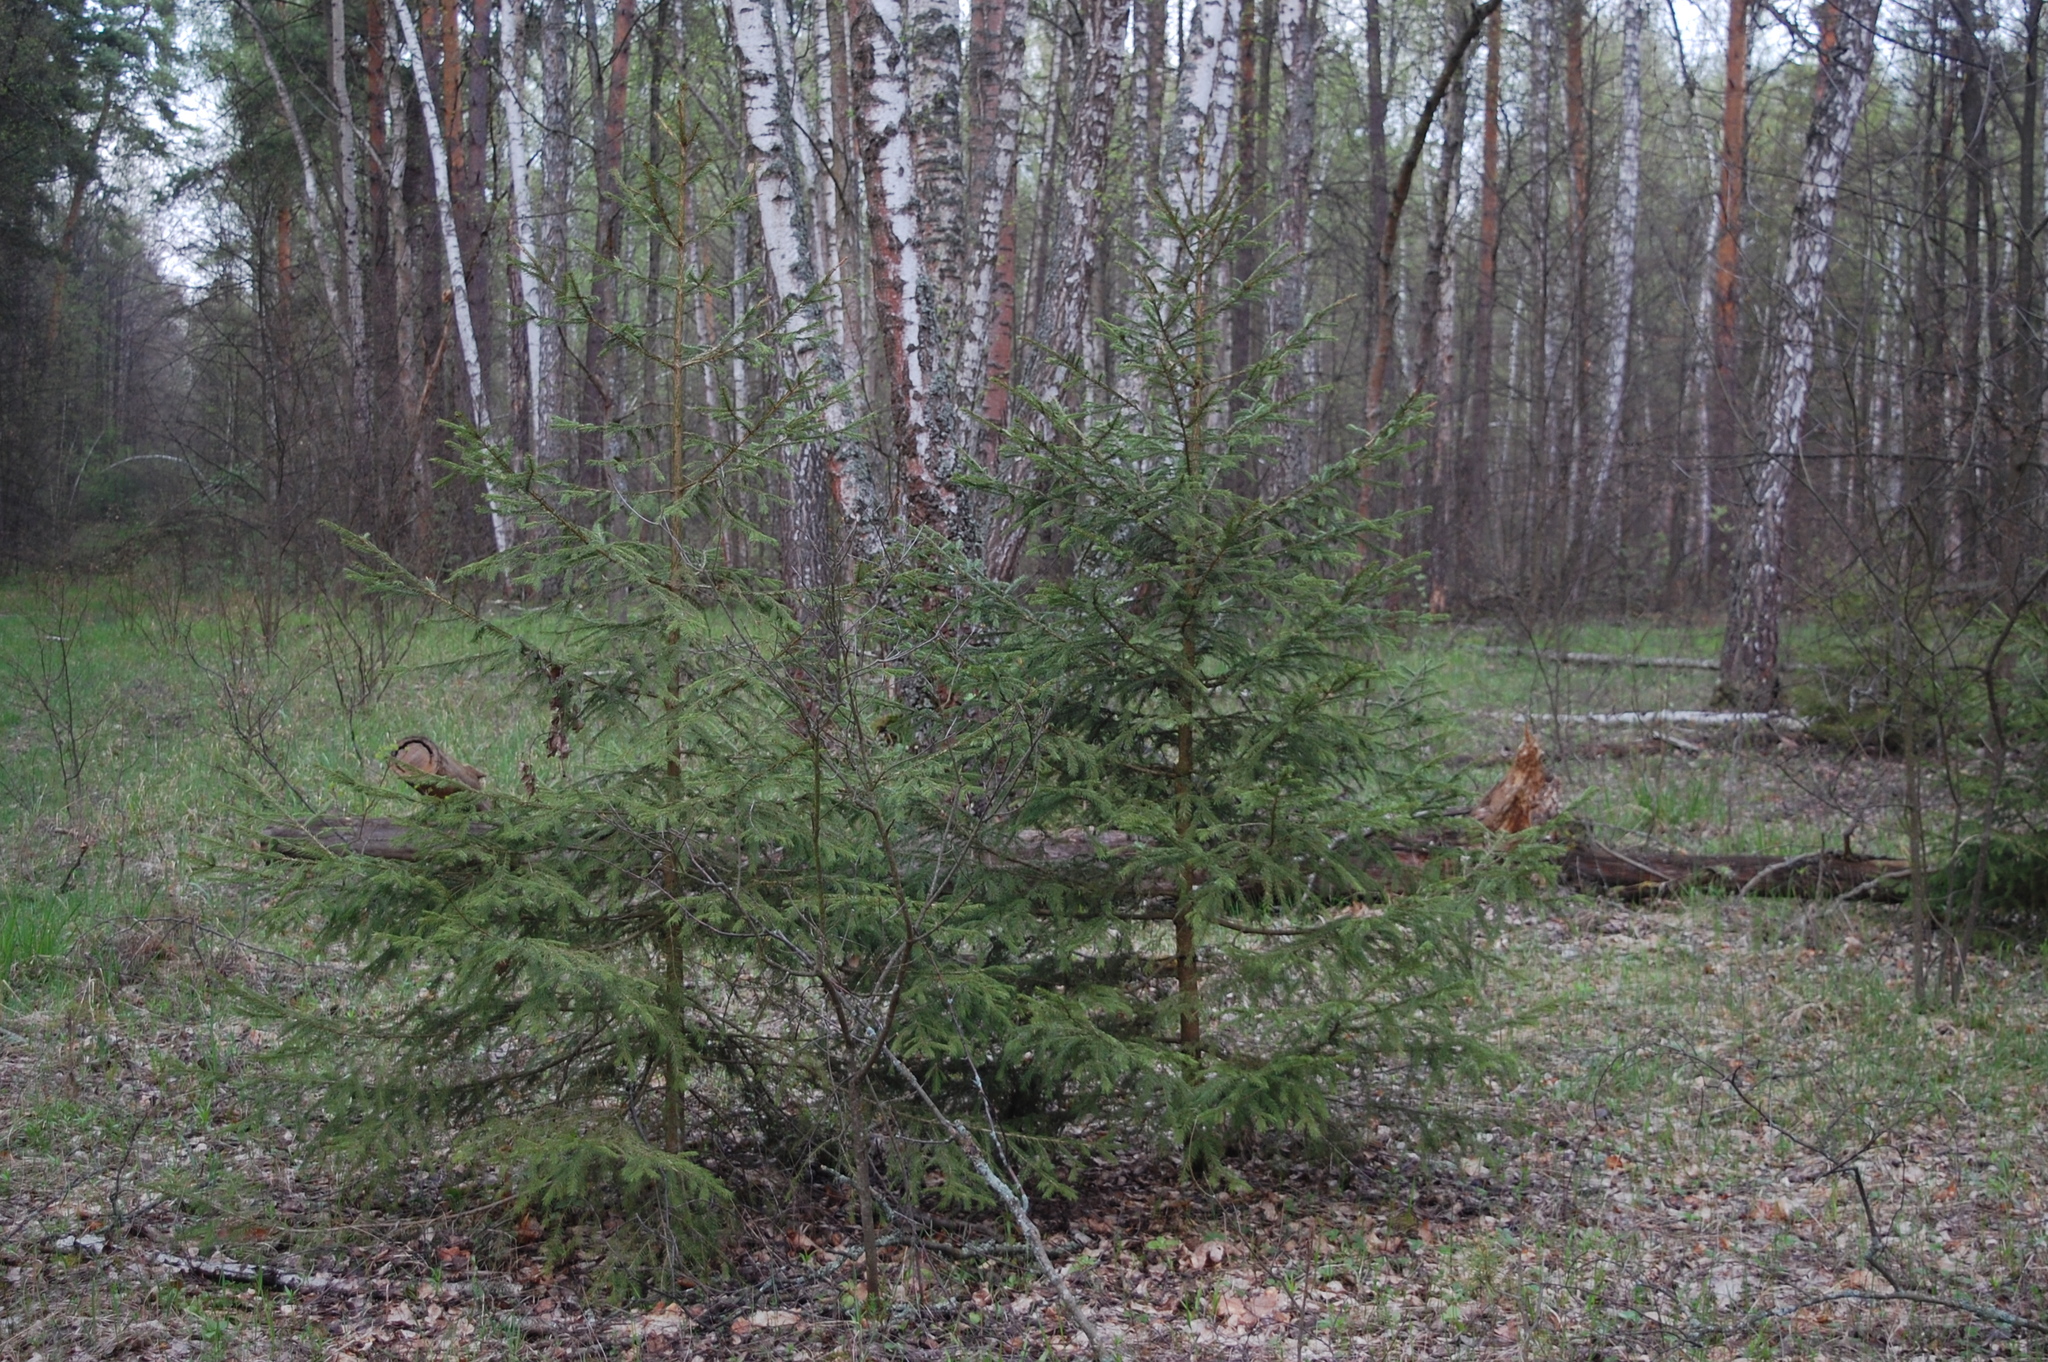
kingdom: Plantae
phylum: Tracheophyta
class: Pinopsida
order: Pinales
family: Pinaceae
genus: Picea
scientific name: Picea abies
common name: Norway spruce
